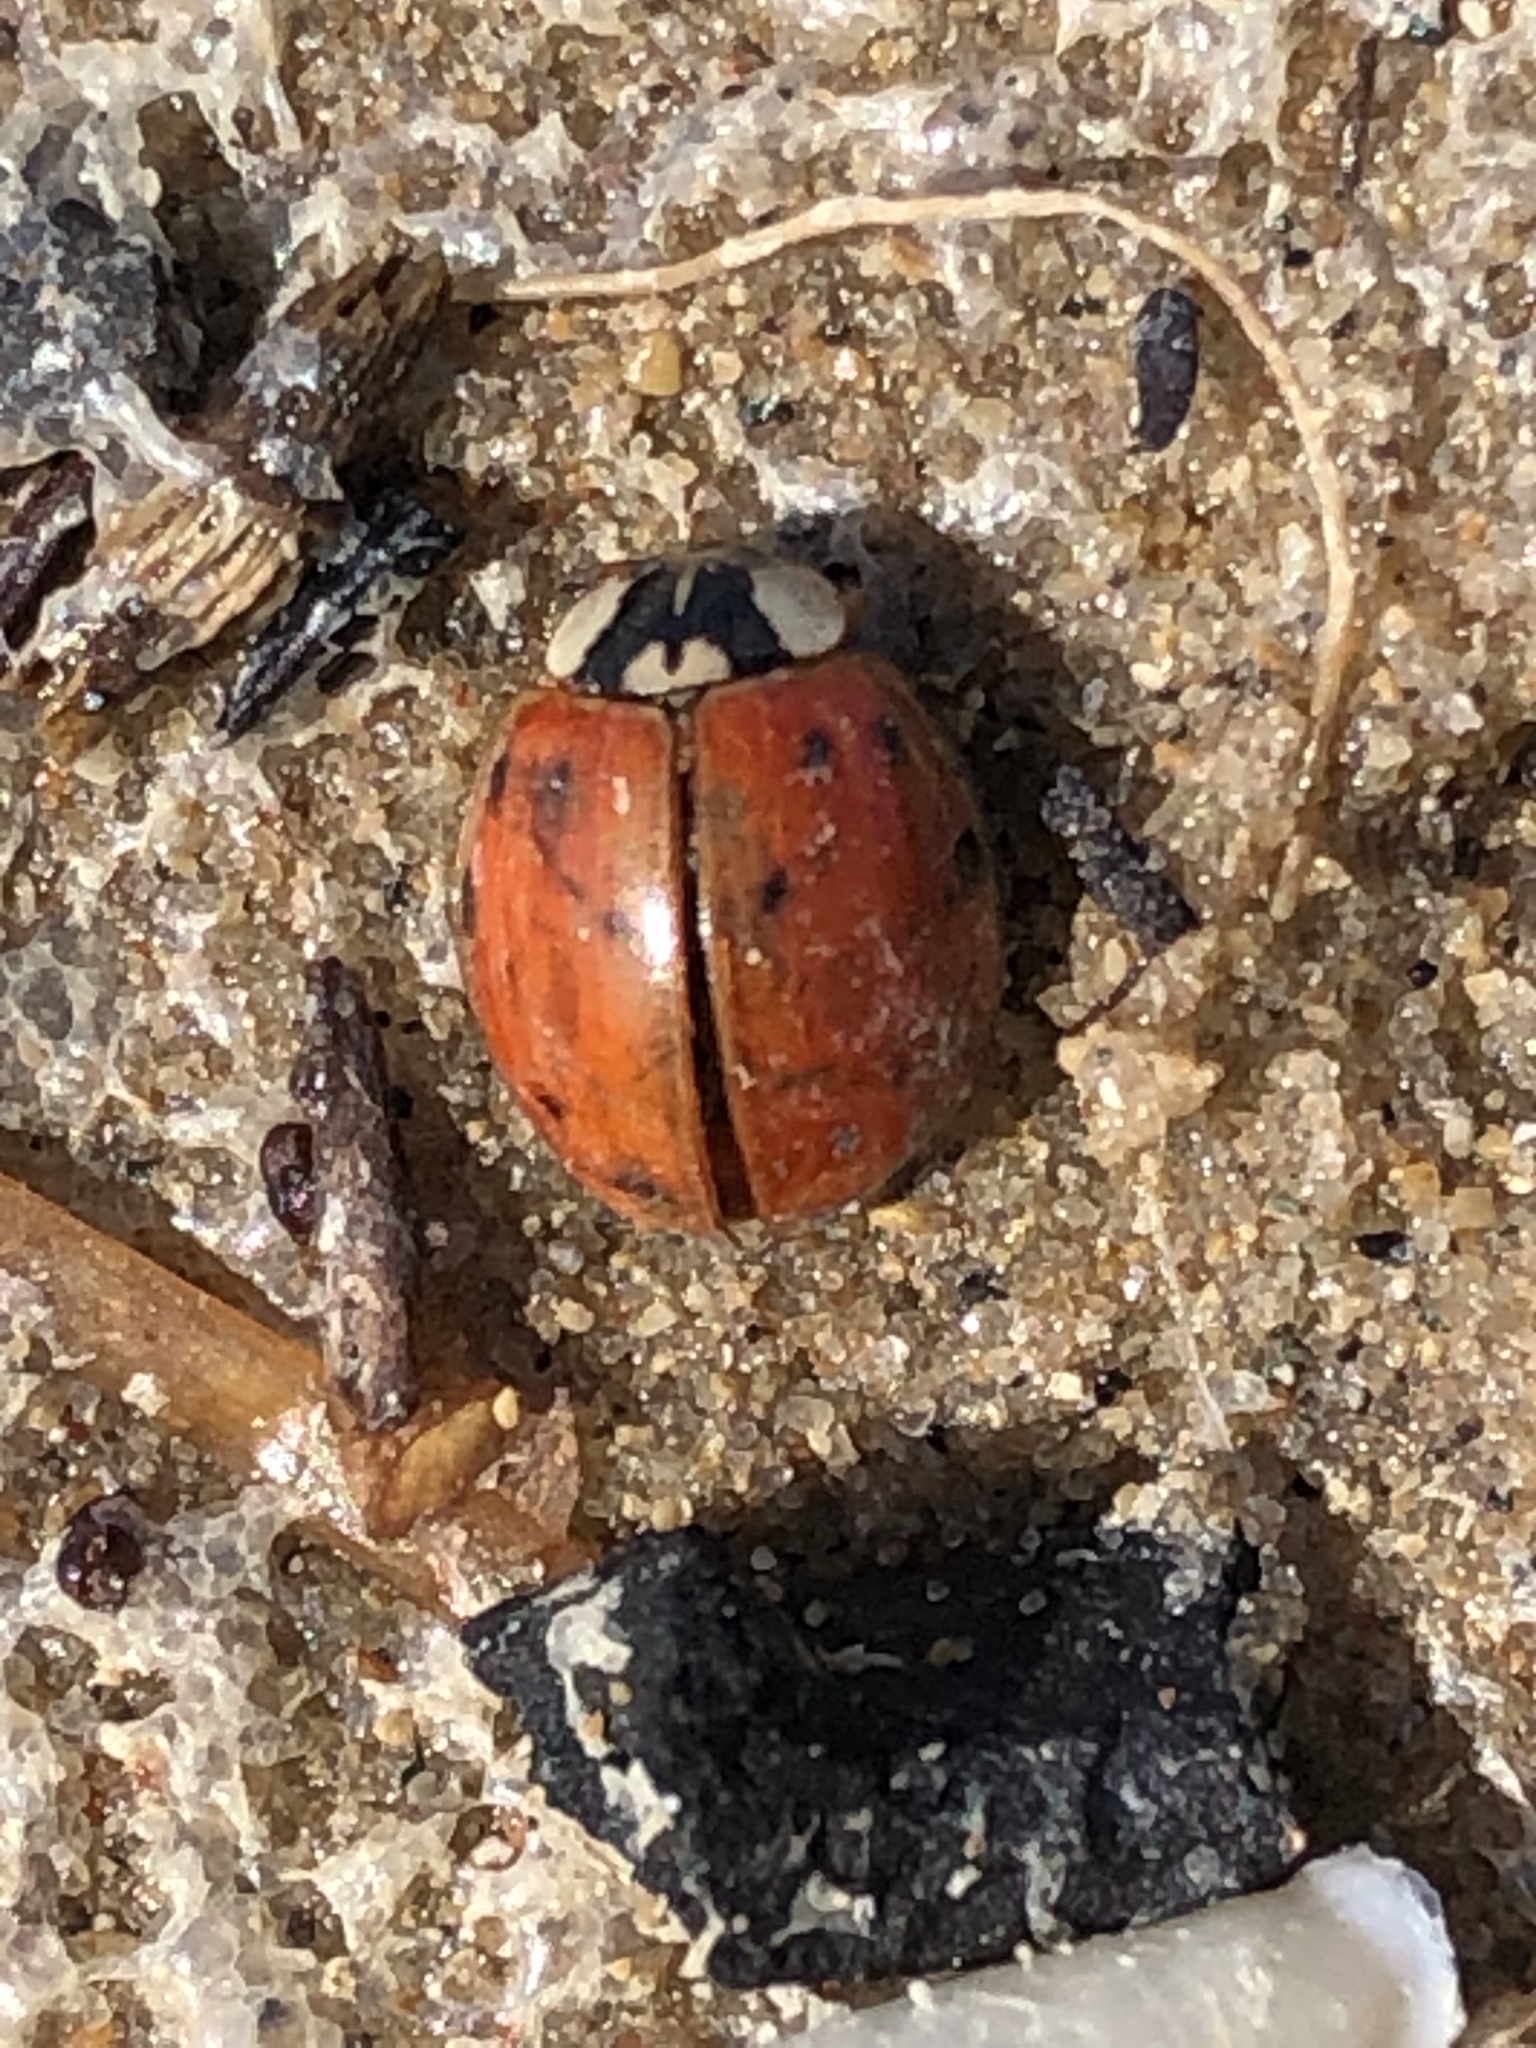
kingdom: Animalia
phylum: Arthropoda
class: Insecta
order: Coleoptera
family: Coccinellidae
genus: Harmonia
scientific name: Harmonia axyridis
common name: Harlequin ladybird
